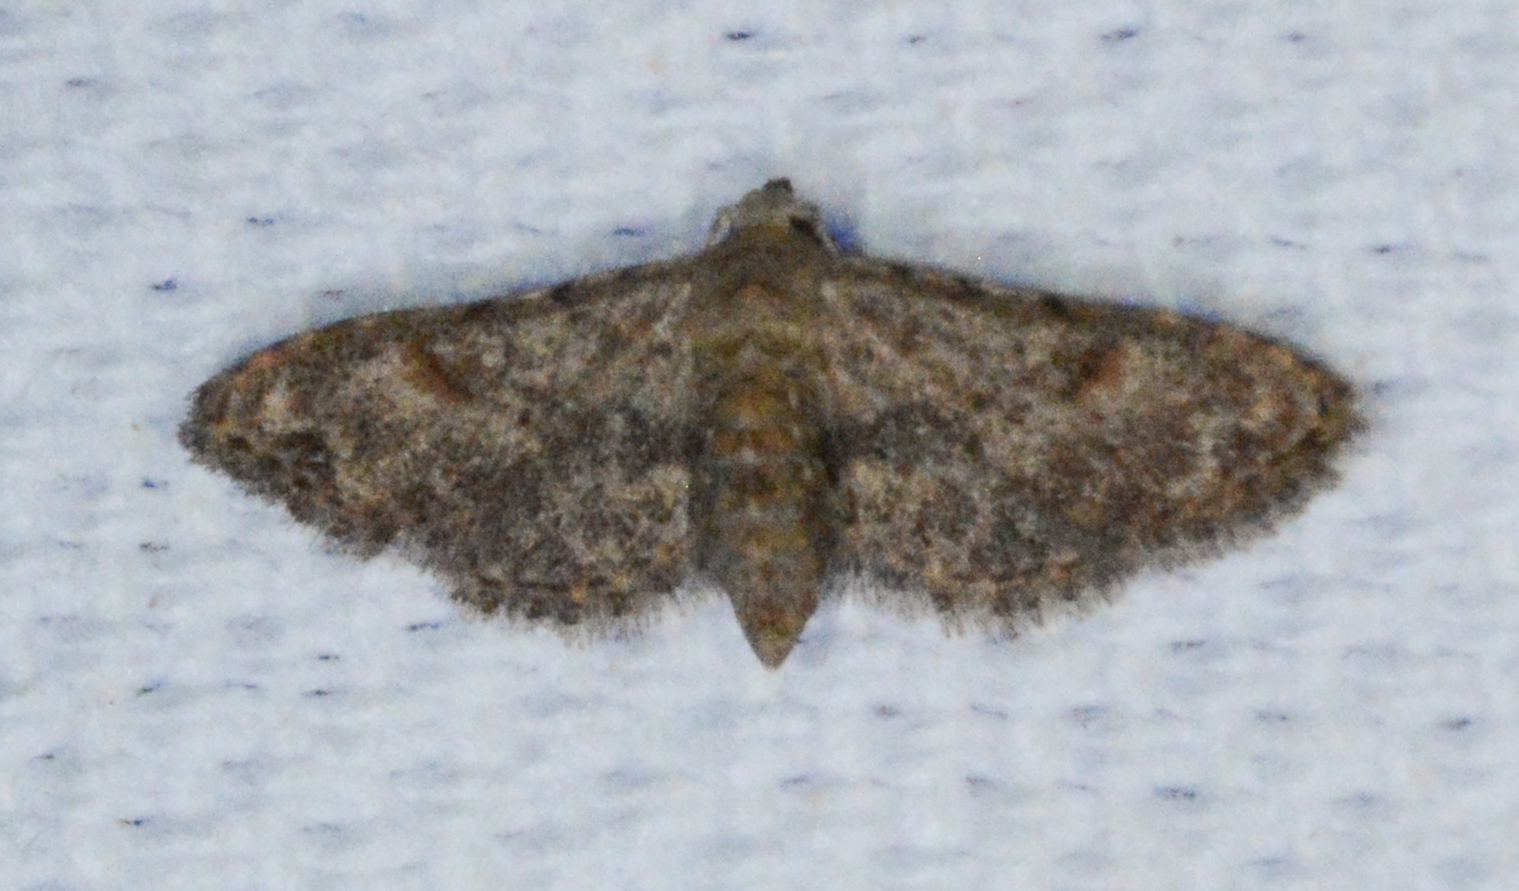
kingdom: Animalia
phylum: Arthropoda
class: Insecta
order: Lepidoptera
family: Erebidae
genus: Sigela
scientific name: Sigela brauneata
